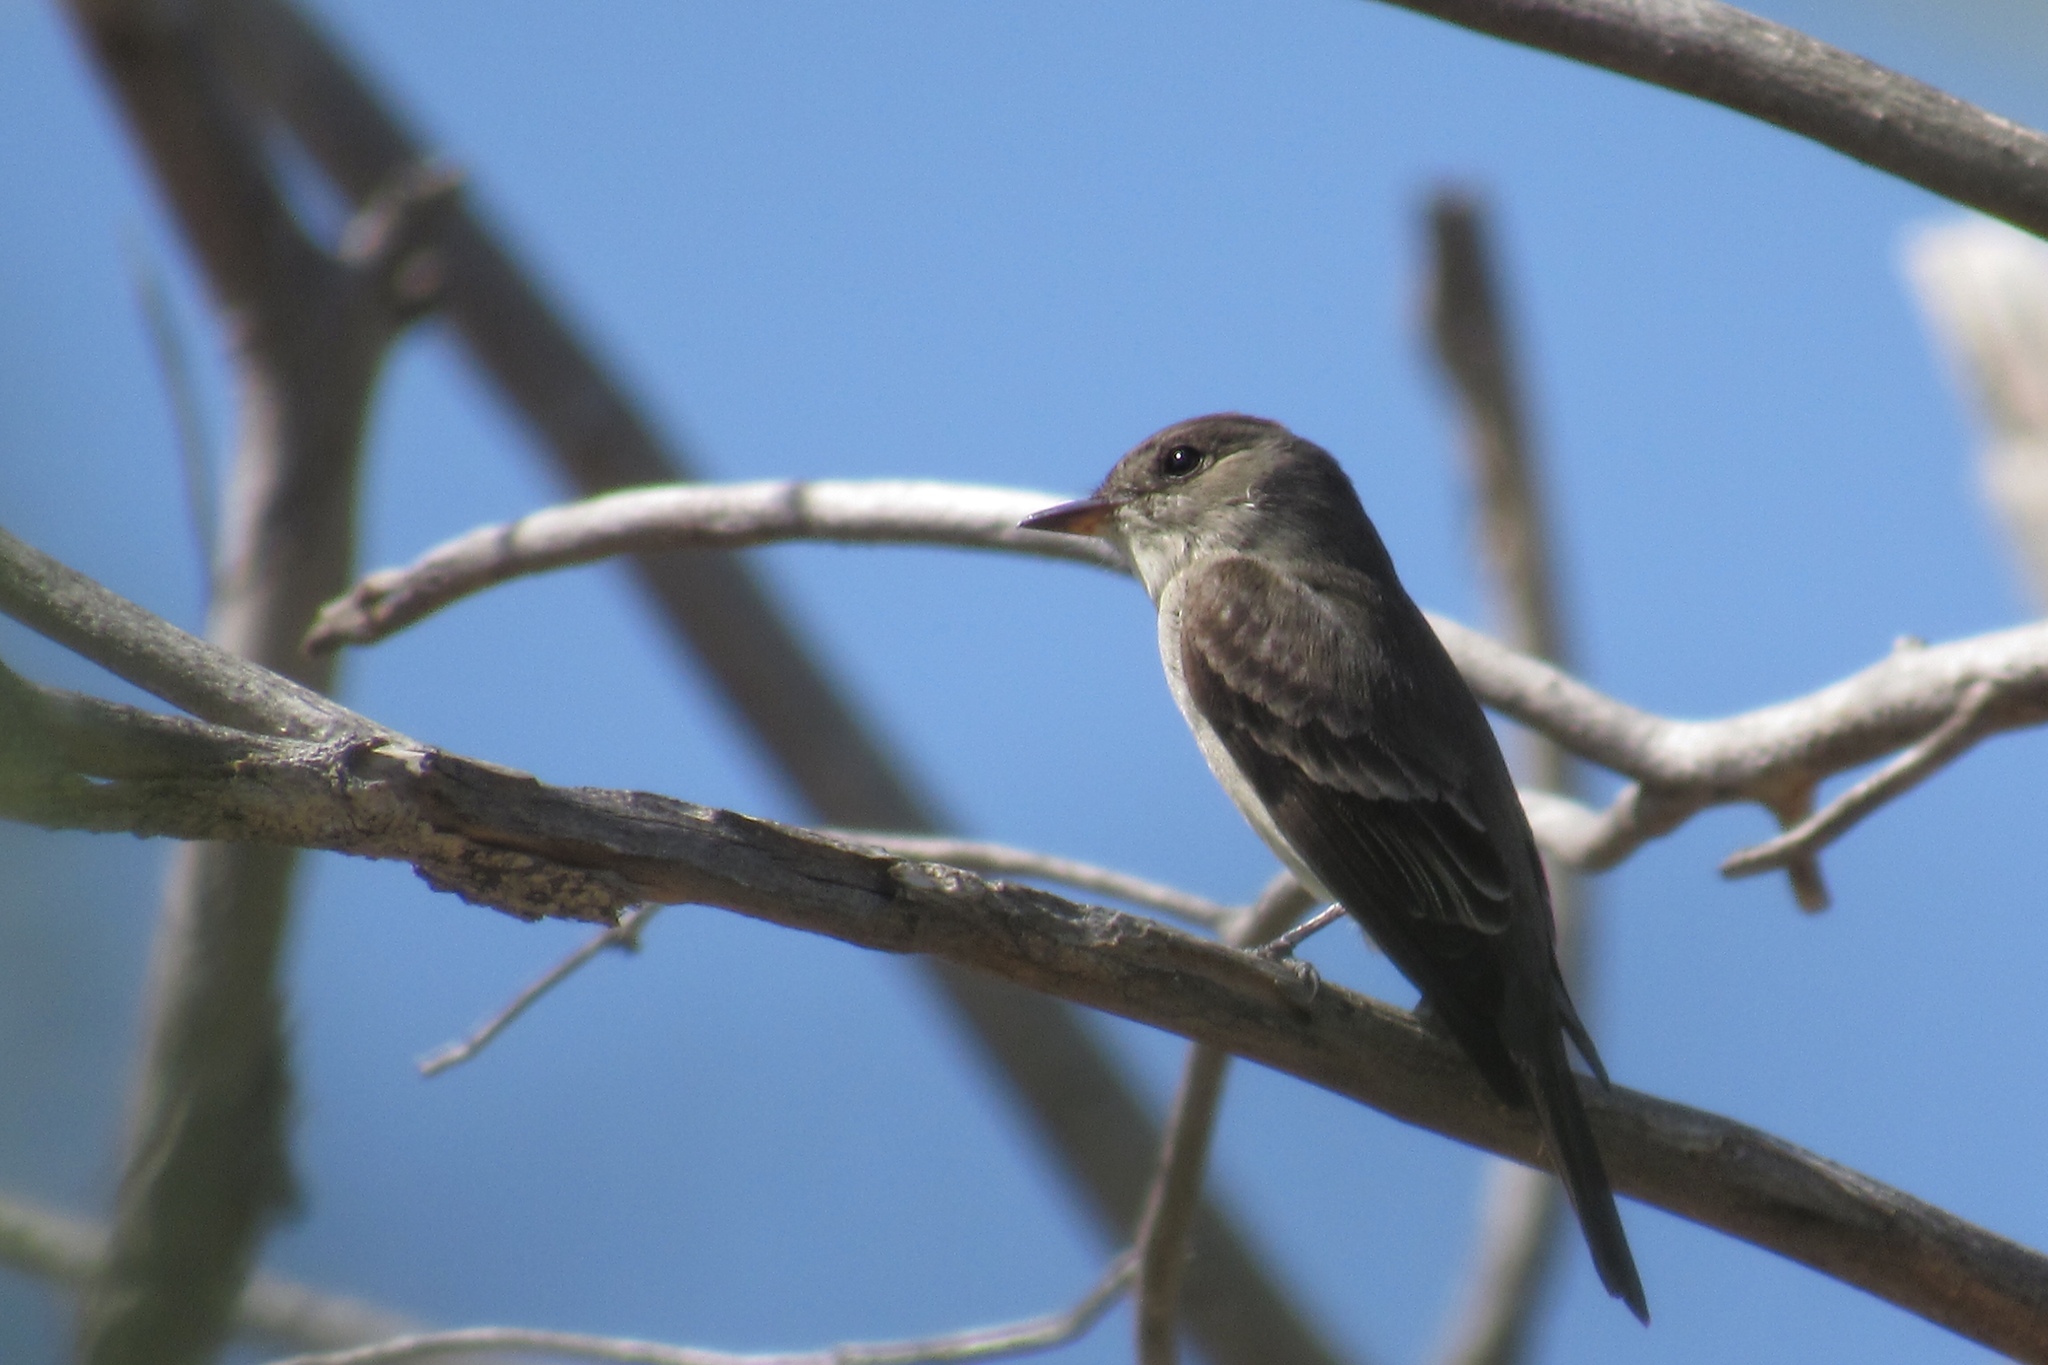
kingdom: Animalia
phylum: Chordata
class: Aves
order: Passeriformes
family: Tyrannidae
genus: Contopus
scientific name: Contopus sordidulus
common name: Western wood-pewee
